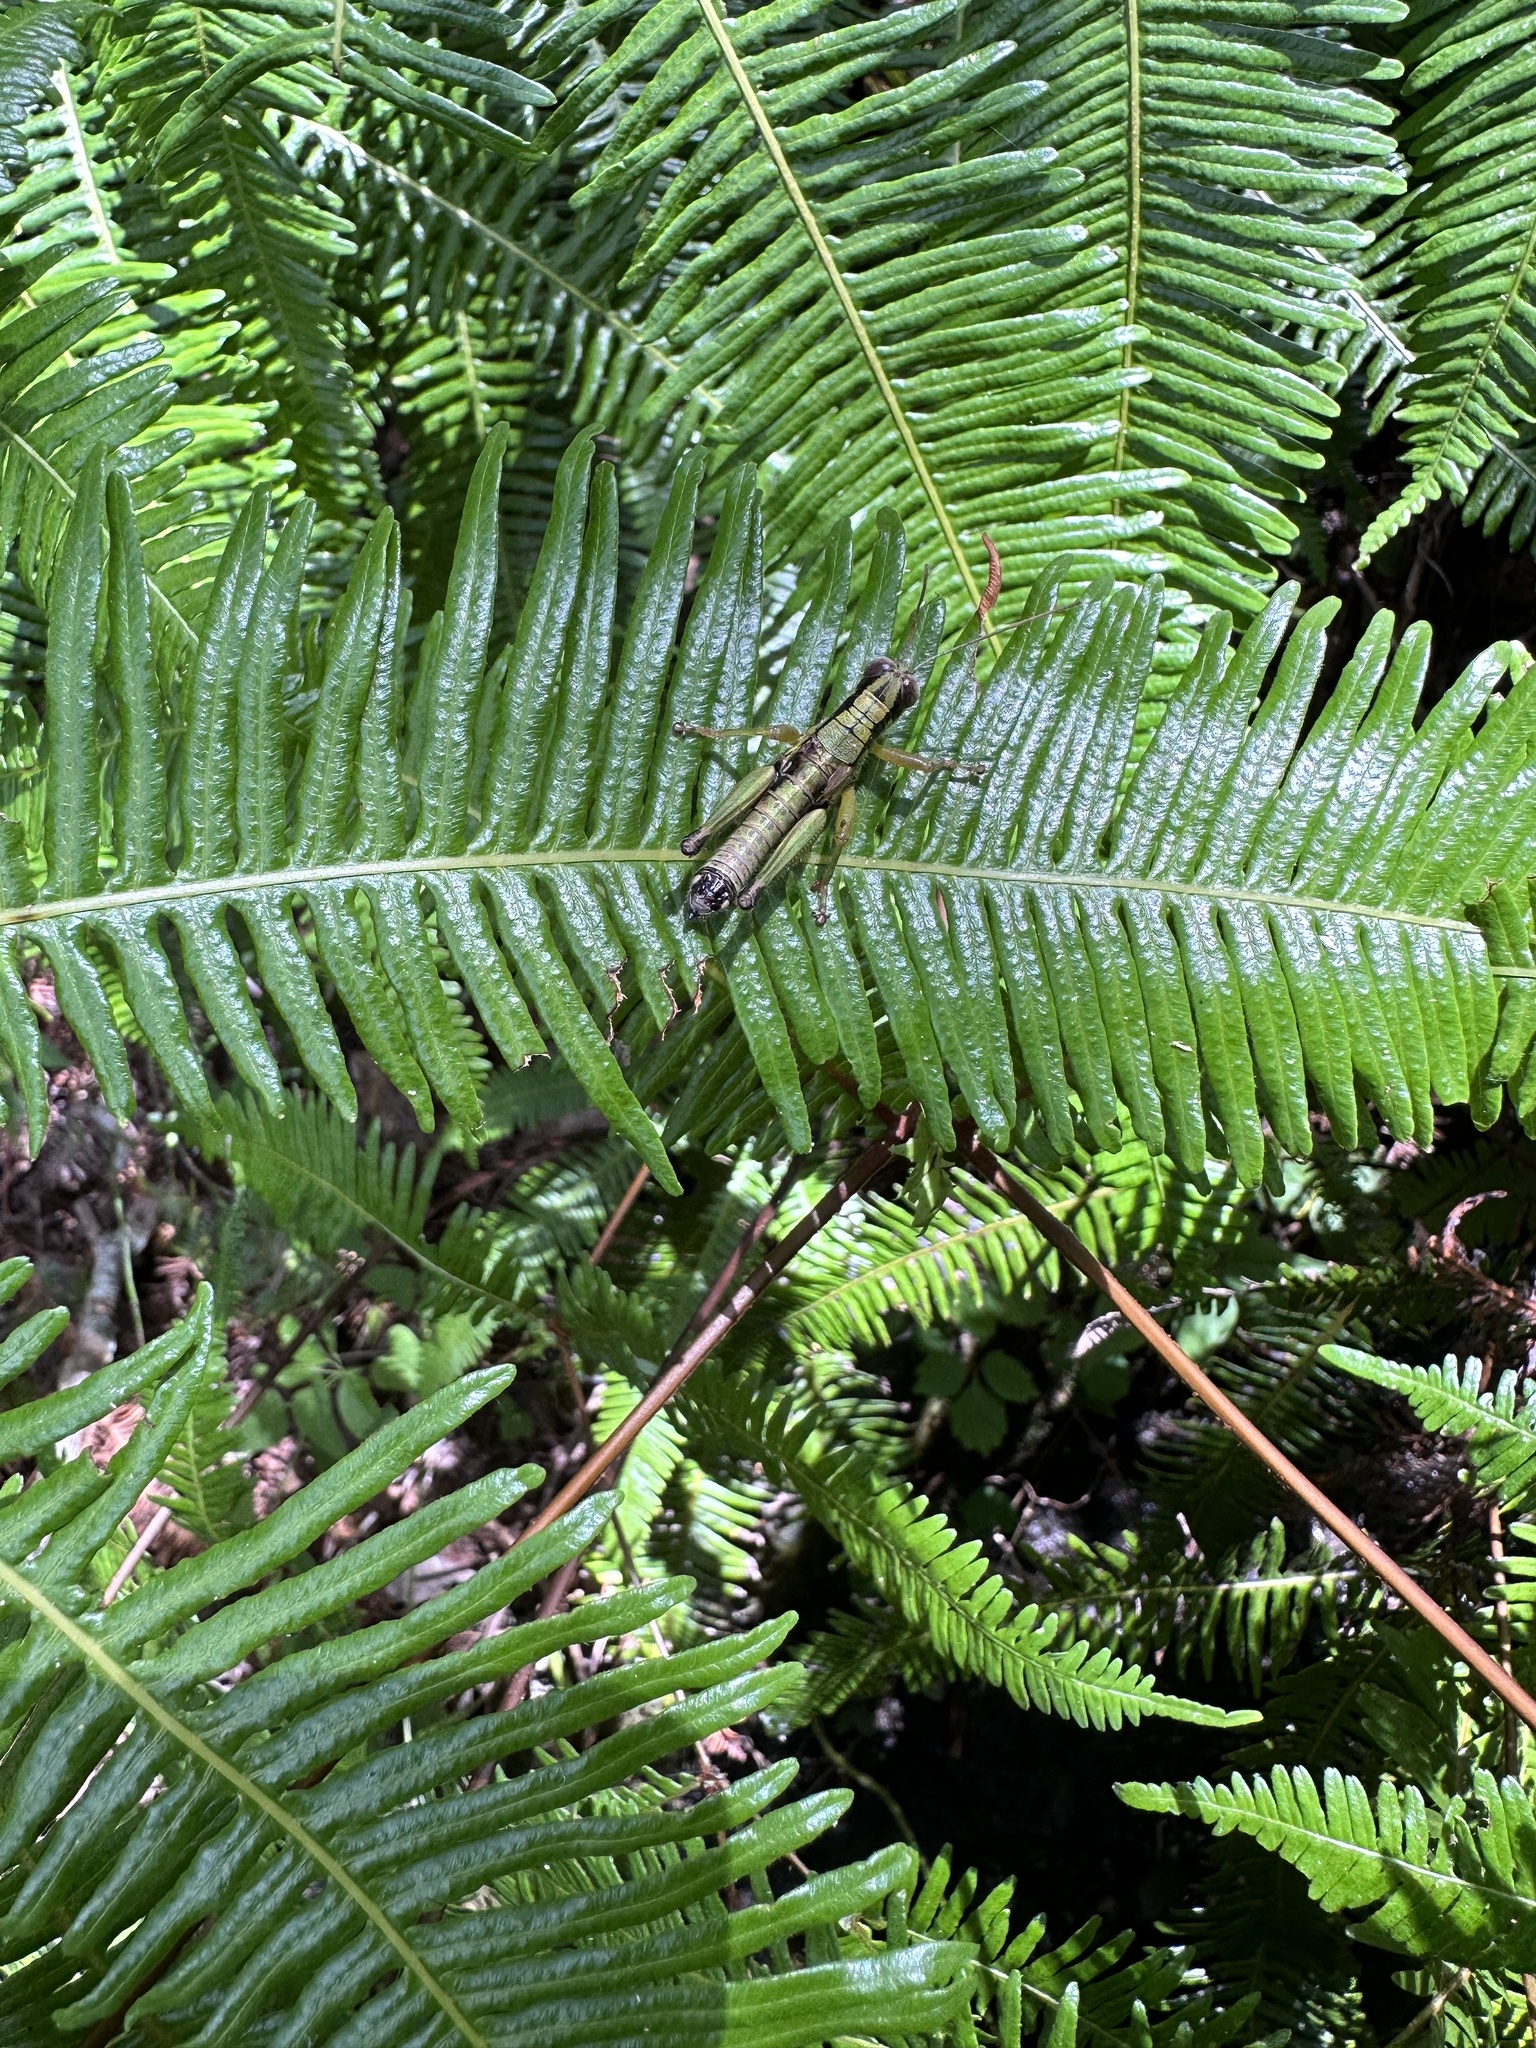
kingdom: Animalia
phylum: Arthropoda
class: Insecta
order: Orthoptera
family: Acrididae
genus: Parapodisma
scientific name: Parapodisma tenryuensis
